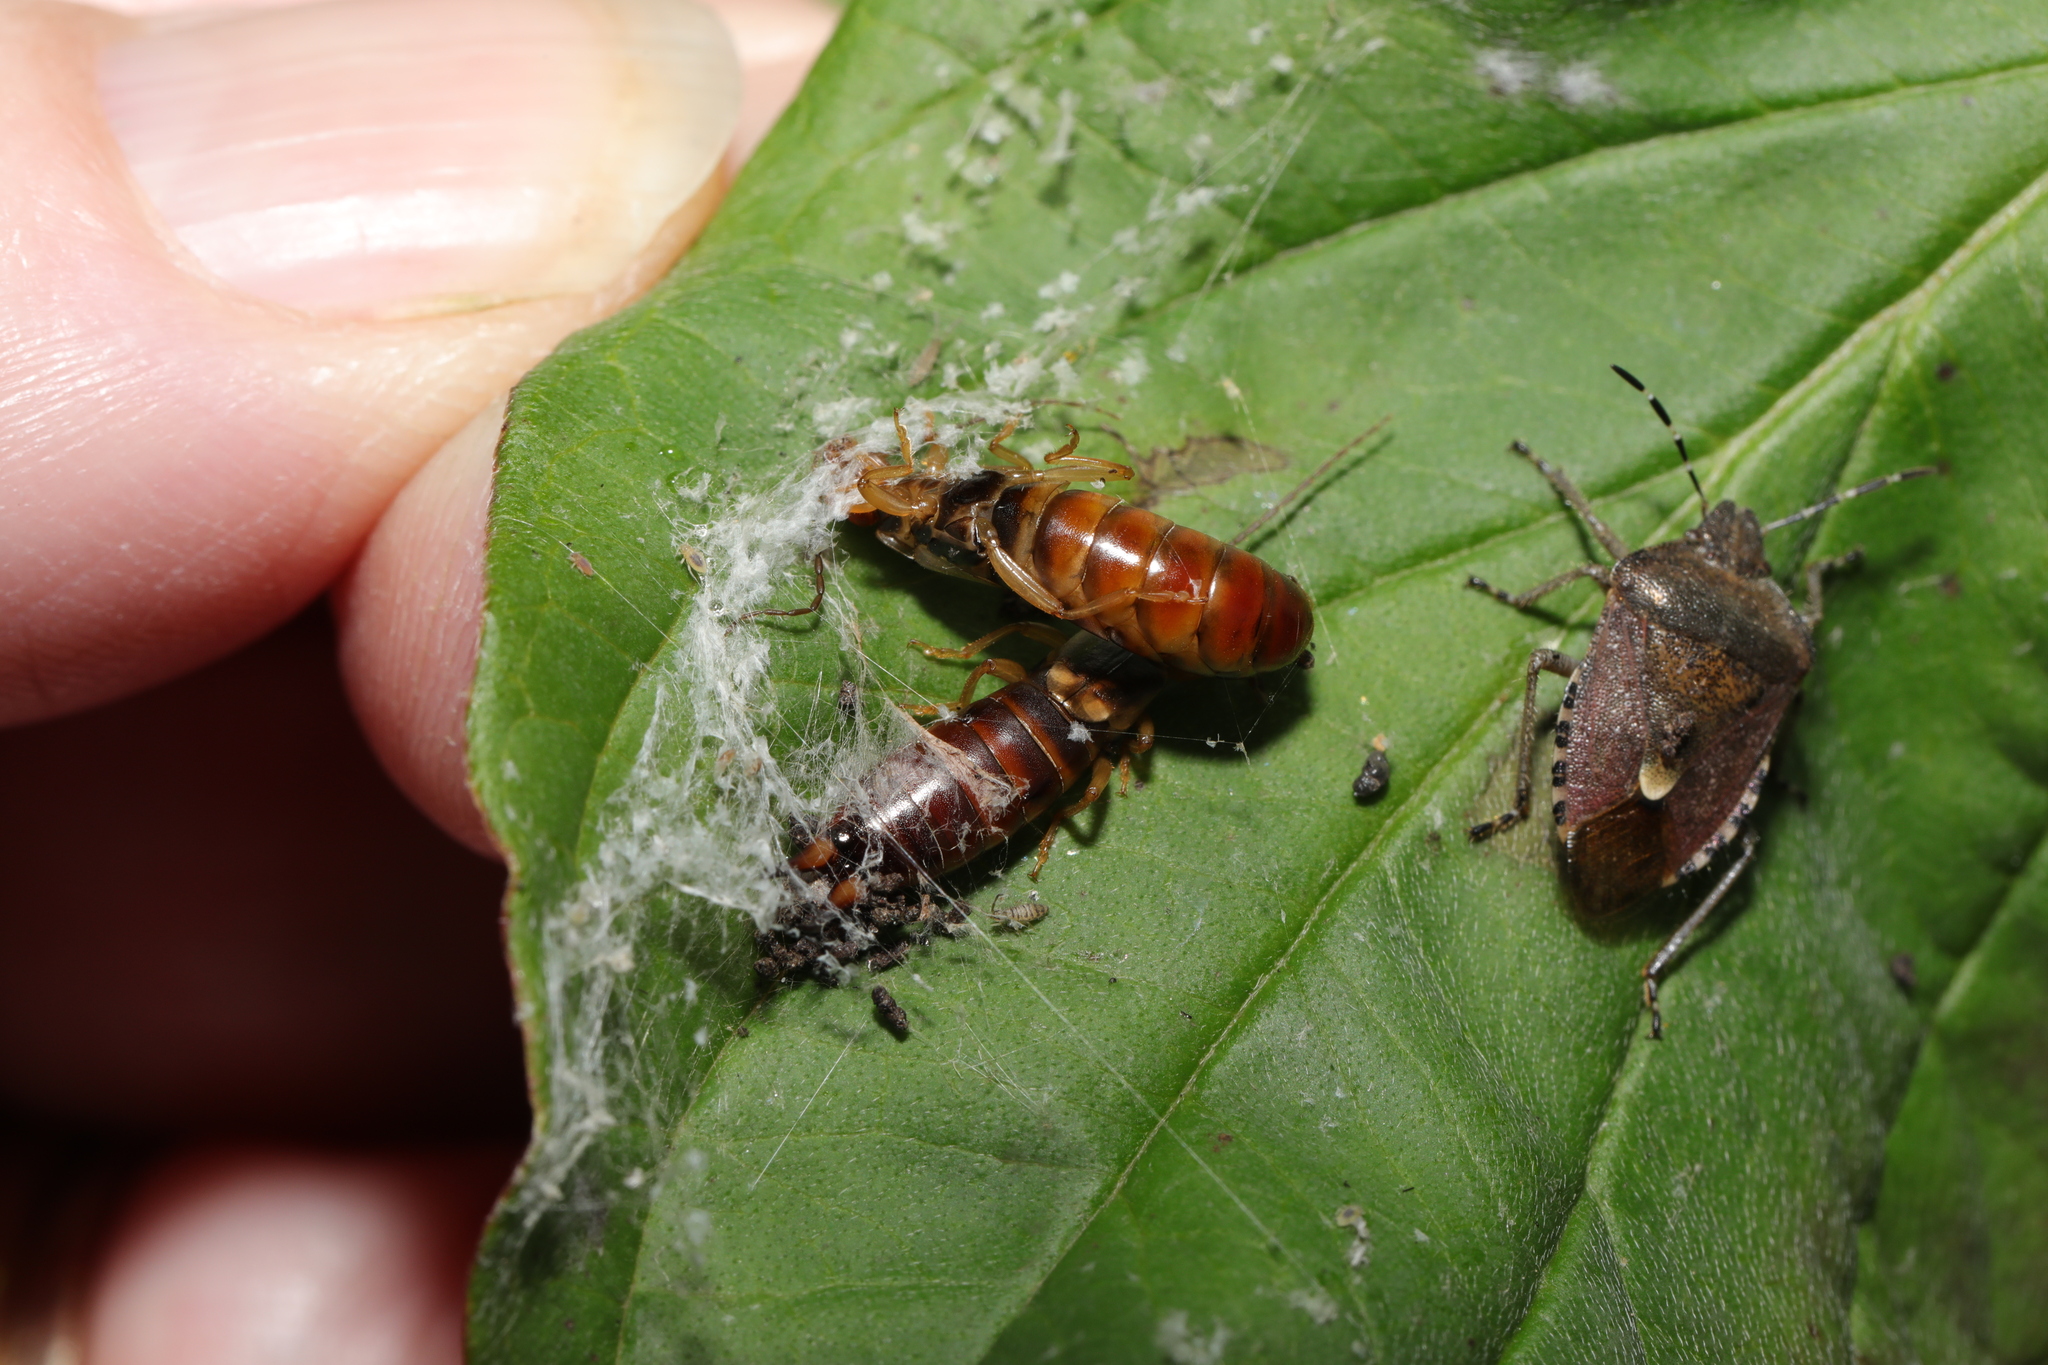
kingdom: Animalia
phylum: Arthropoda
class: Insecta
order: Hemiptera
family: Pentatomidae
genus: Dolycoris
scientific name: Dolycoris baccarum
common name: Sloe bug
